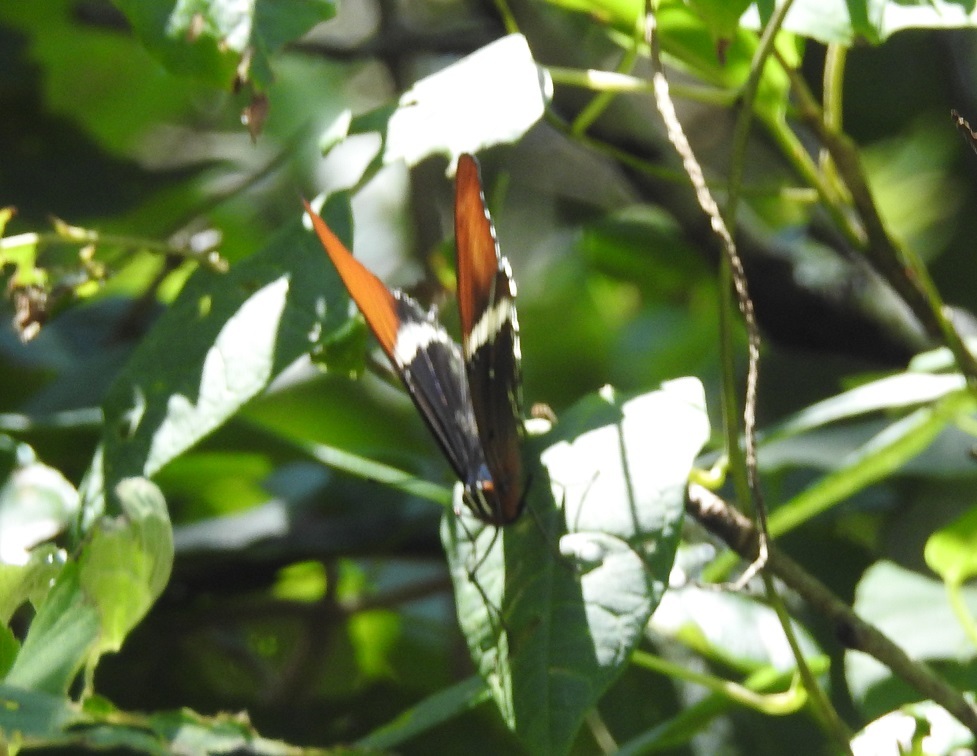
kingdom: Animalia
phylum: Arthropoda
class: Insecta
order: Lepidoptera
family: Nymphalidae
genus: Siproeta
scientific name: Siproeta epaphus
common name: Rusty-tipped page
